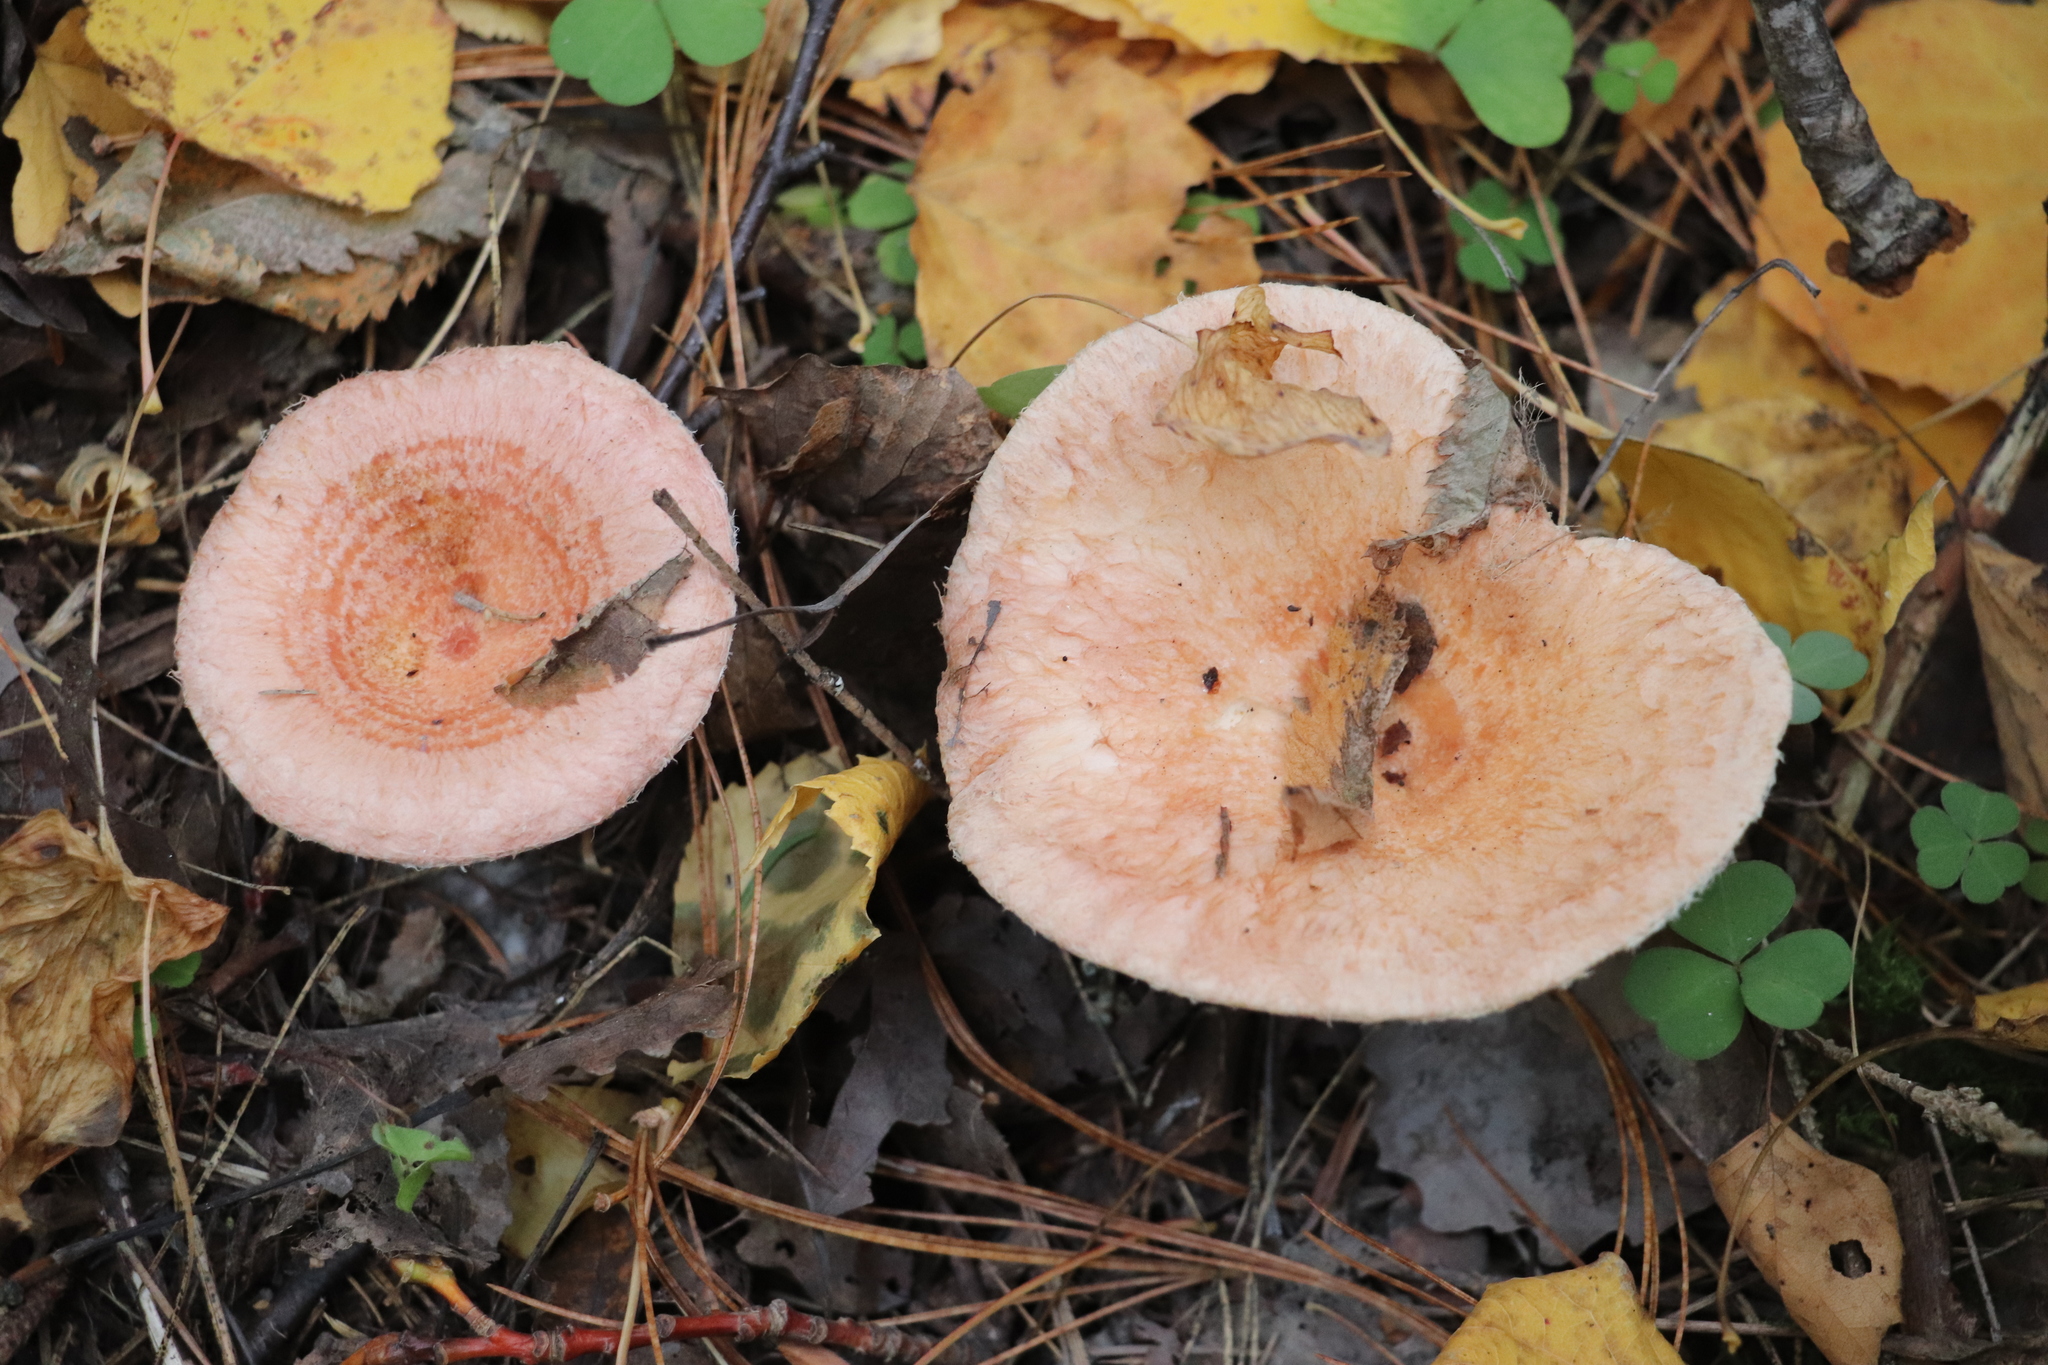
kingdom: Fungi
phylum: Basidiomycota
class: Agaricomycetes
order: Russulales
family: Russulaceae
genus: Lactarius
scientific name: Lactarius torminosus
